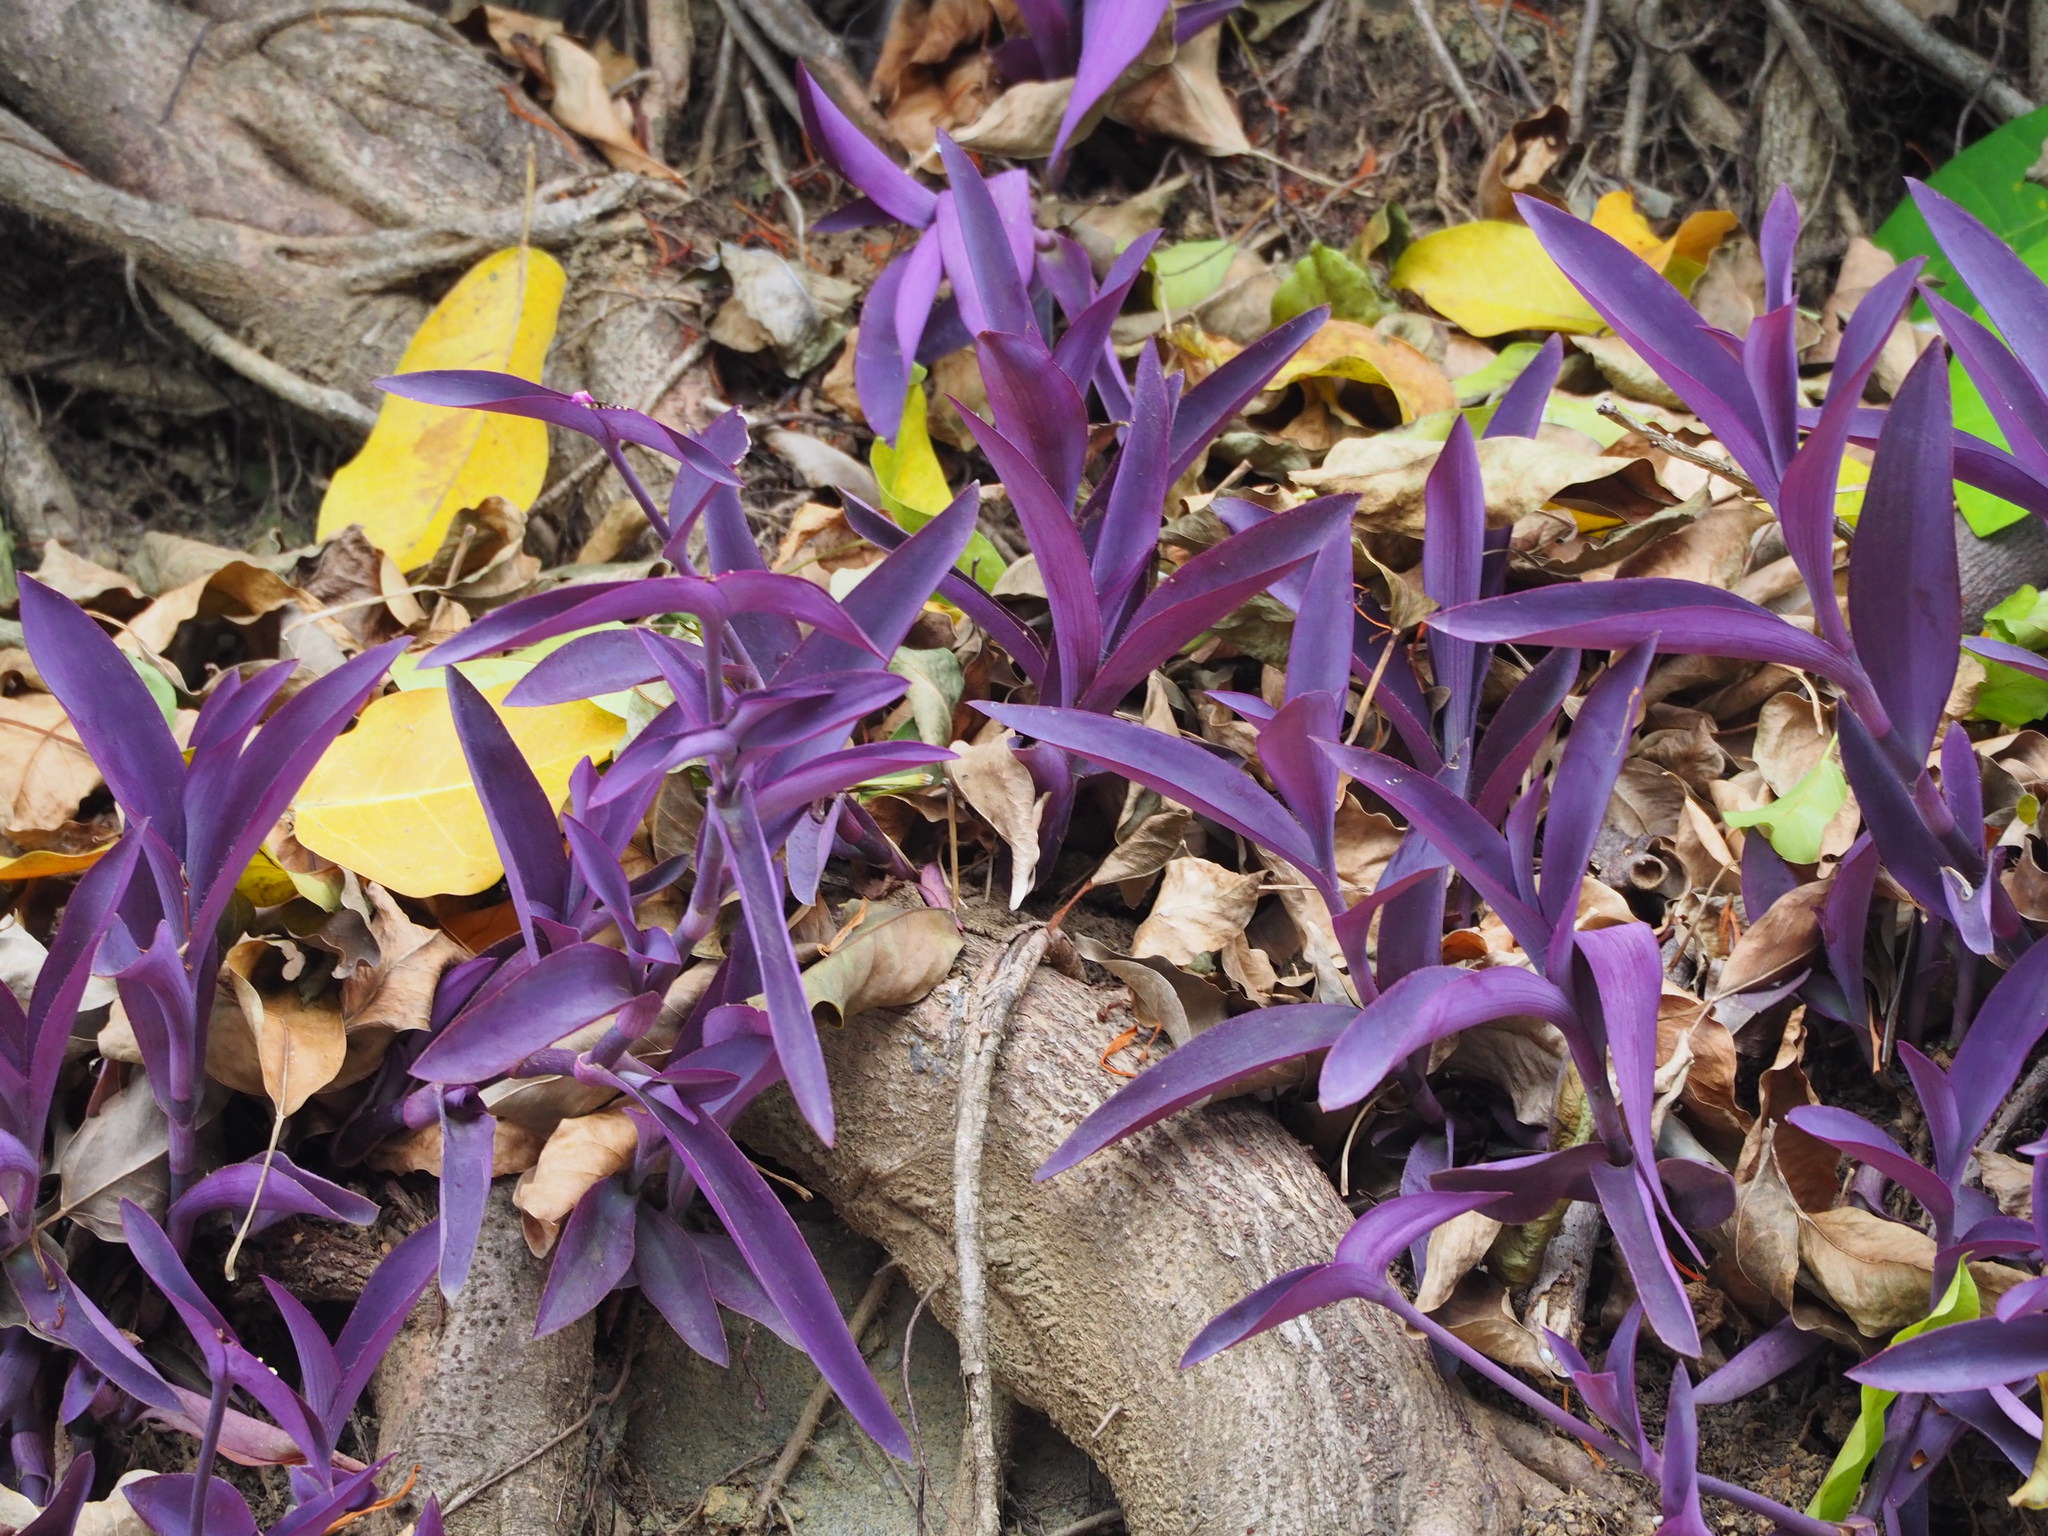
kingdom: Plantae
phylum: Tracheophyta
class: Liliopsida
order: Commelinales
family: Commelinaceae
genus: Tradescantia
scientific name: Tradescantia pallida
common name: Purpleheart
